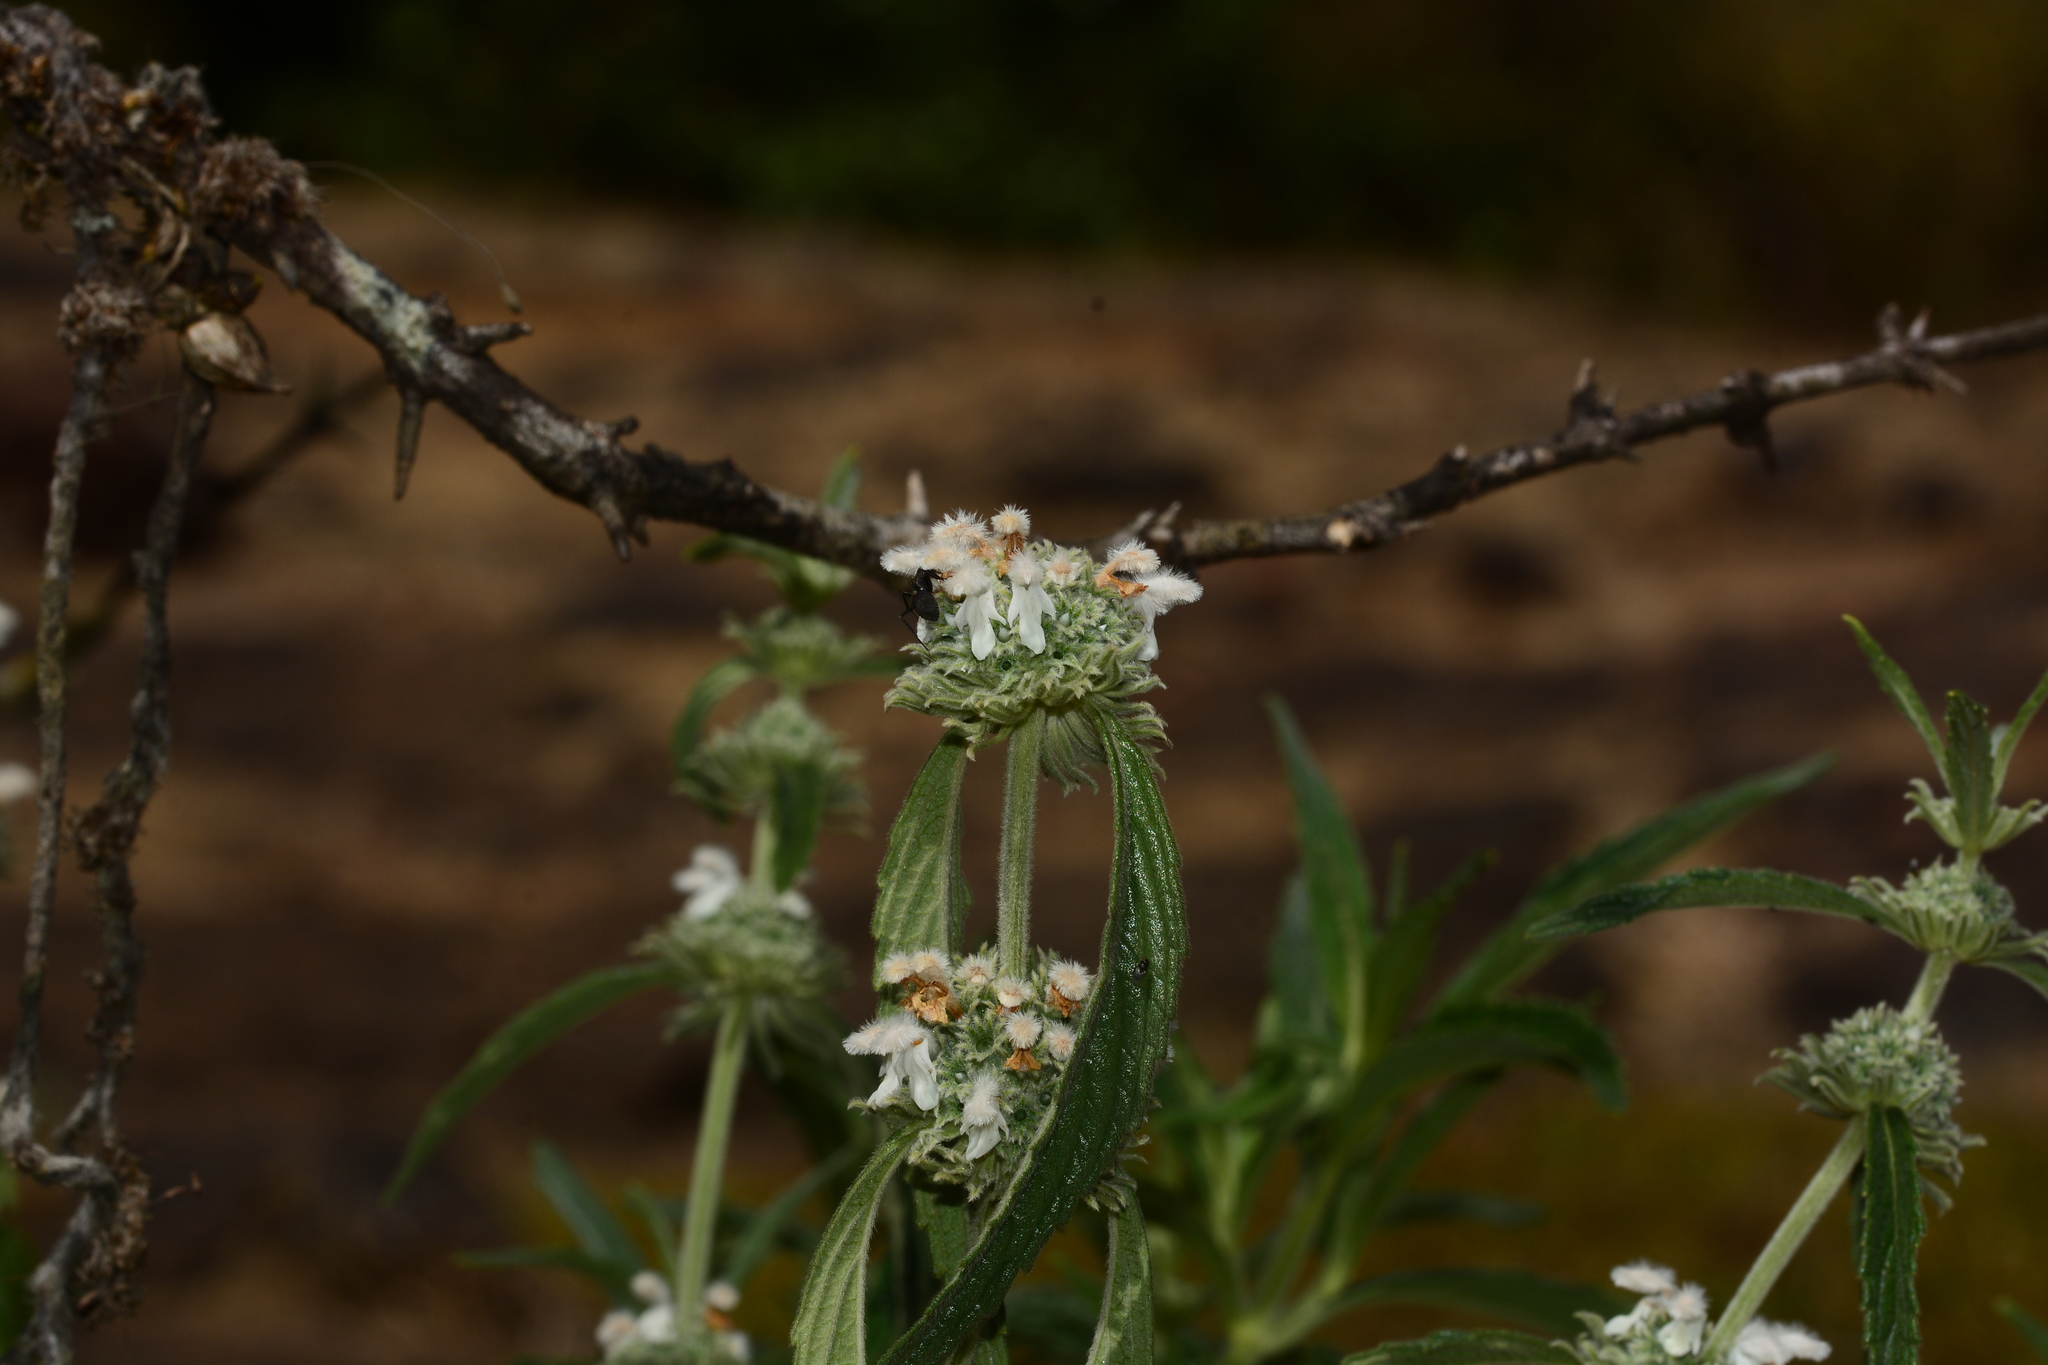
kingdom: Plantae
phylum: Tracheophyta
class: Magnoliopsida
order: Lamiales
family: Lamiaceae
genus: Leucas
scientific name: Leucas stelligera
